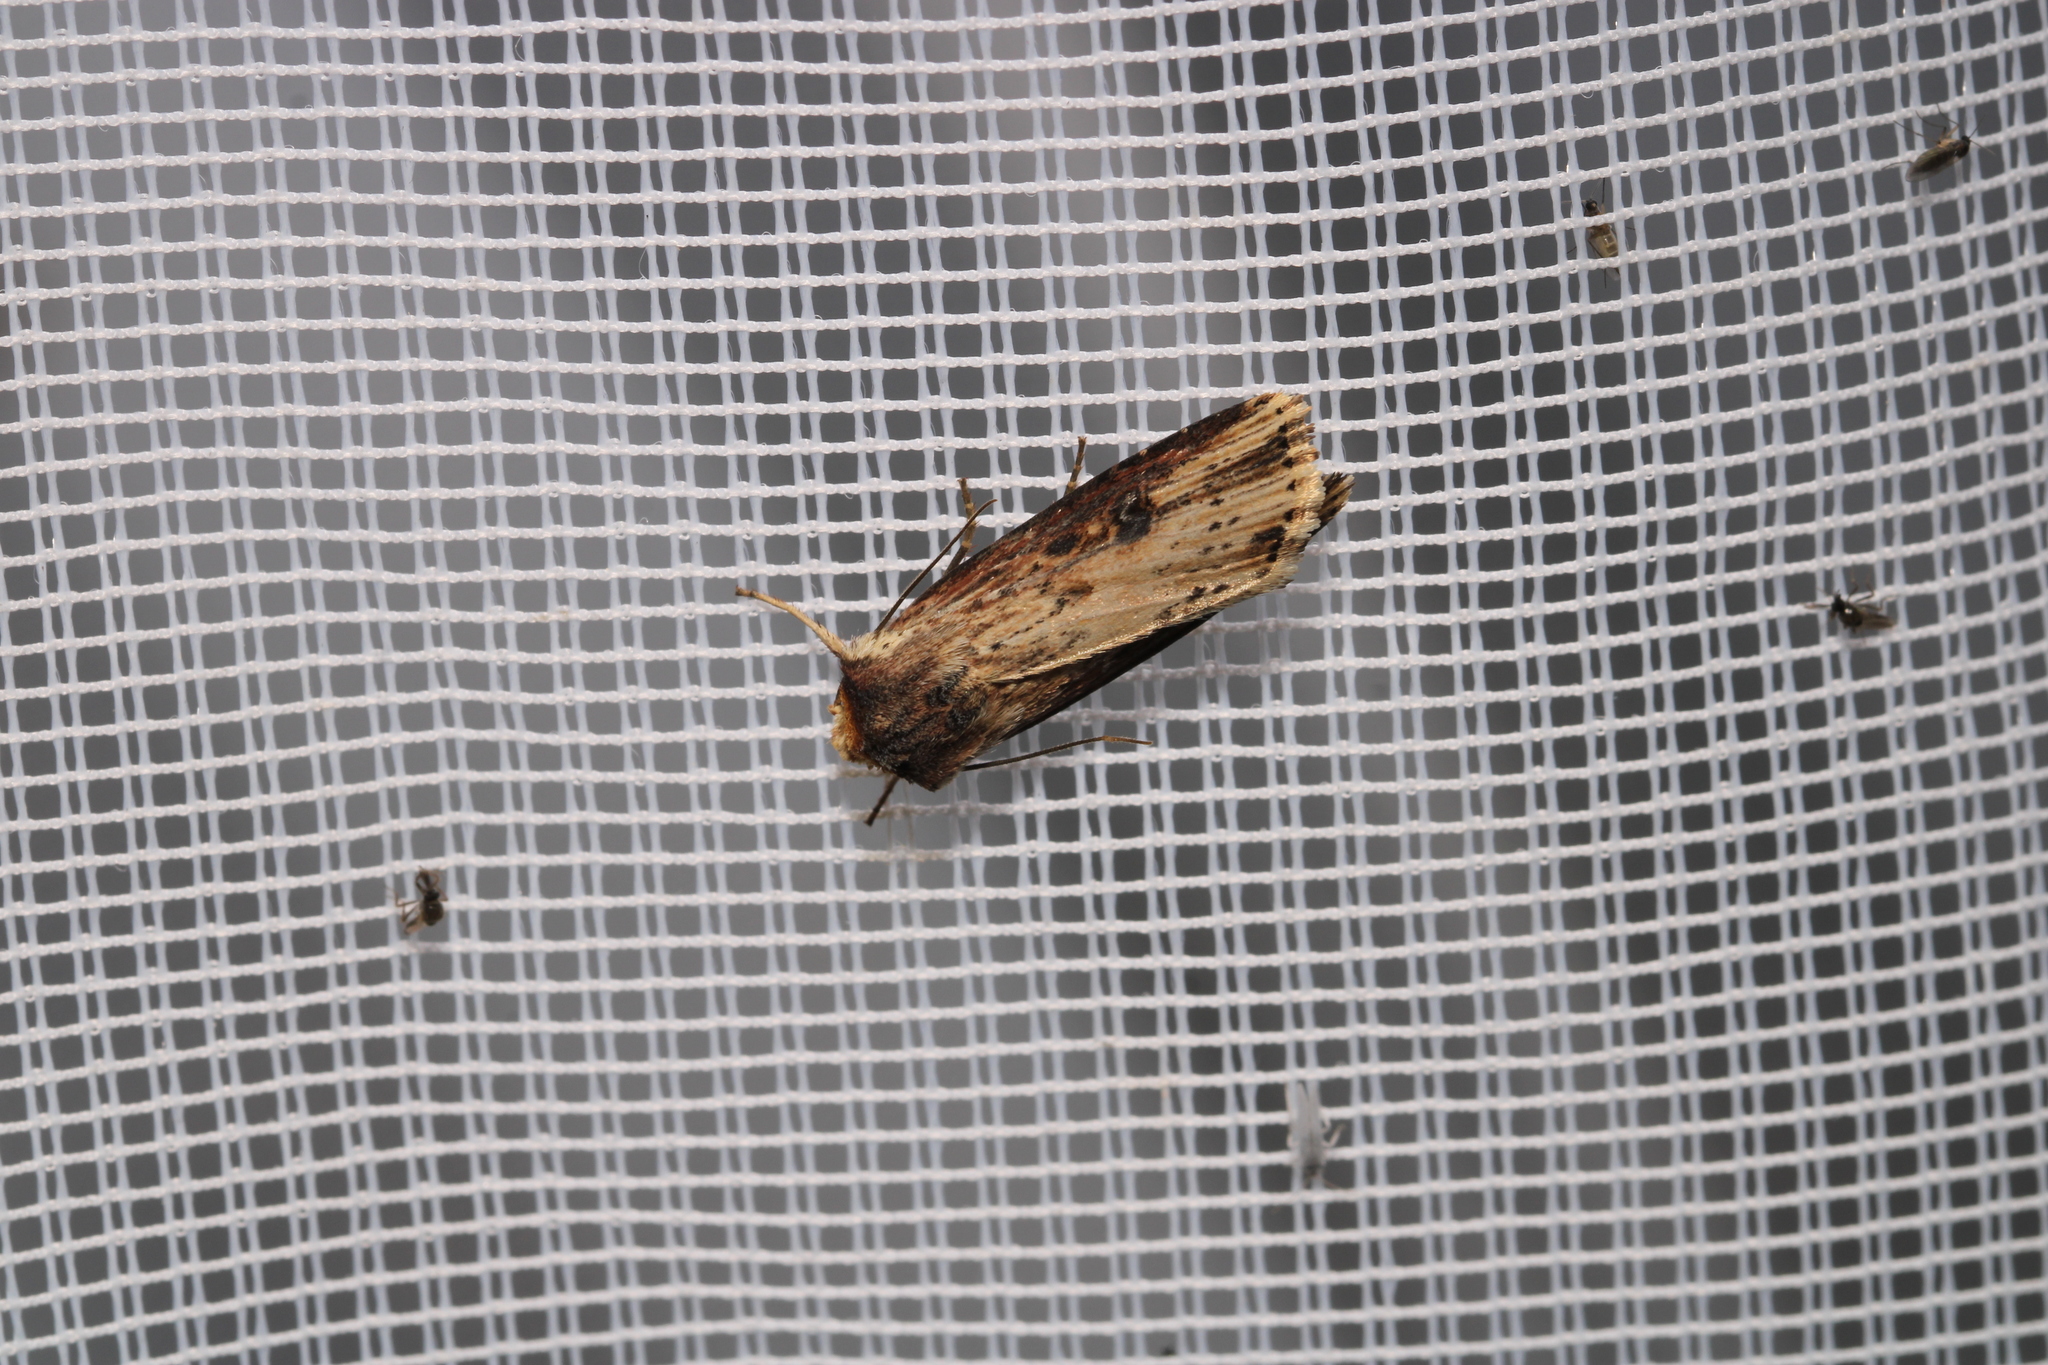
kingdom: Animalia
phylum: Arthropoda
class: Insecta
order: Lepidoptera
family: Noctuidae
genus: Axylia
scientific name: Axylia putris
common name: Flame
